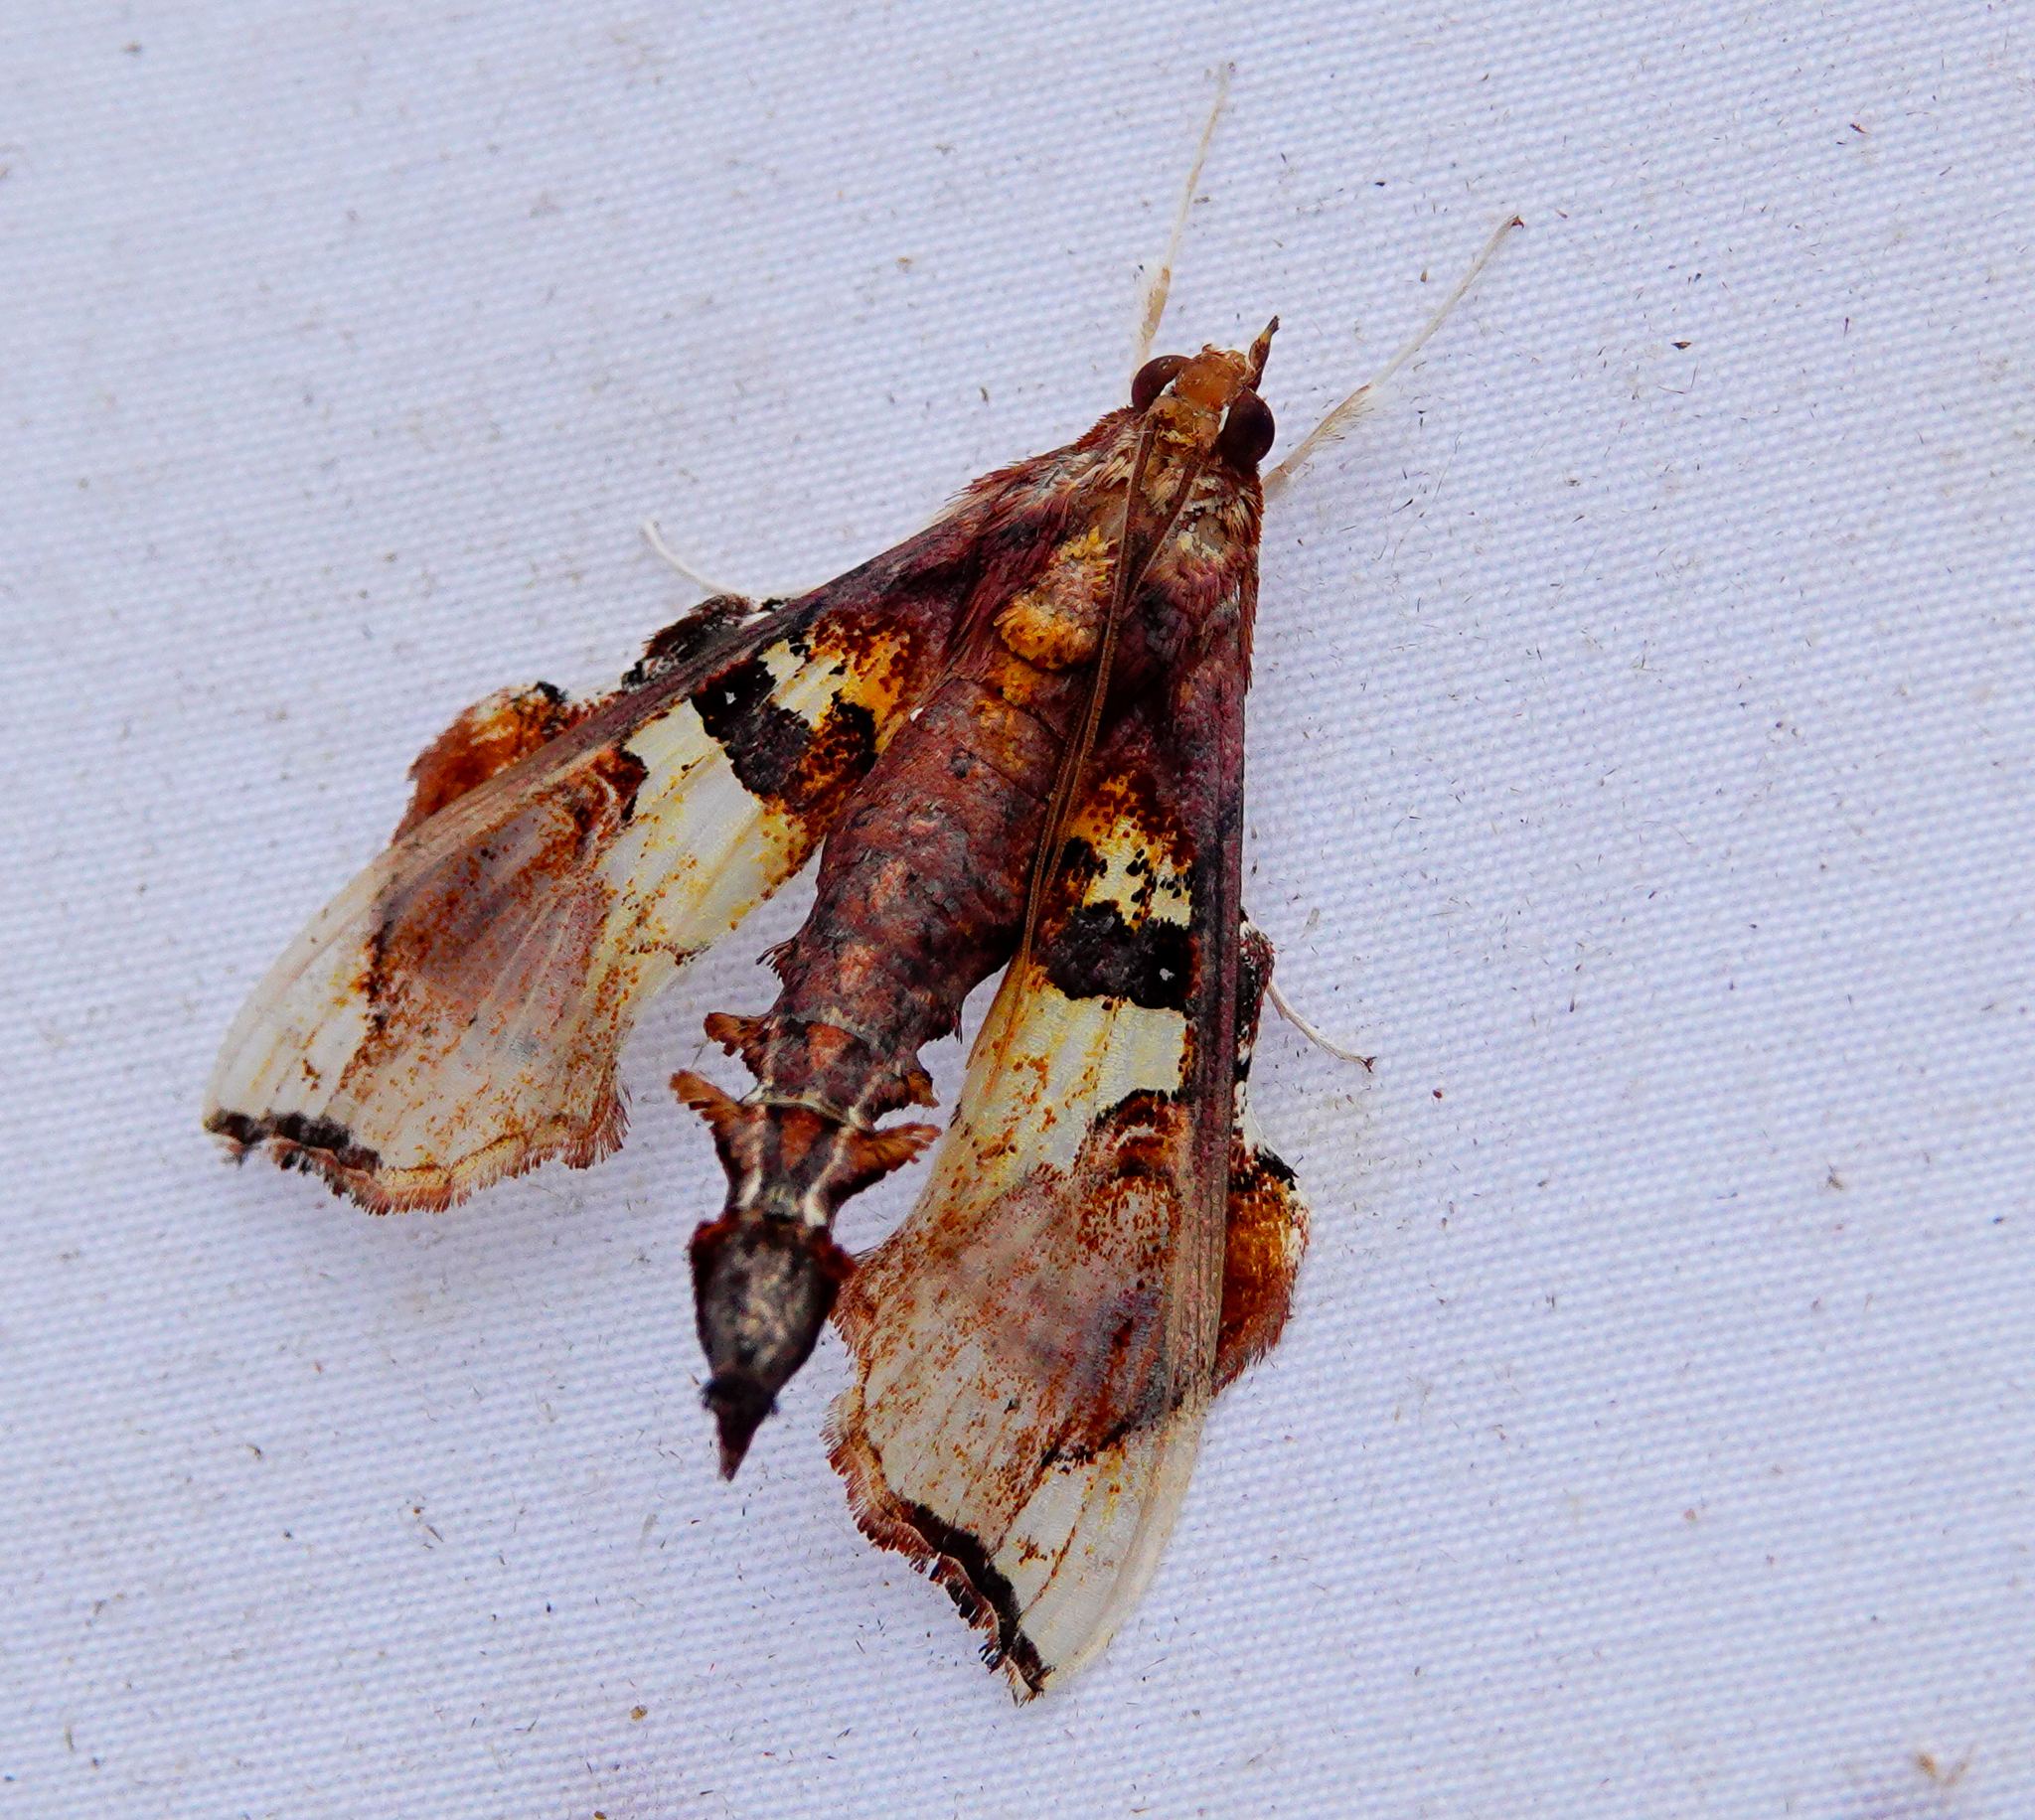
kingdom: Animalia
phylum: Arthropoda
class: Insecta
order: Lepidoptera
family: Crambidae
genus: Terastia
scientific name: Terastia egialealis
